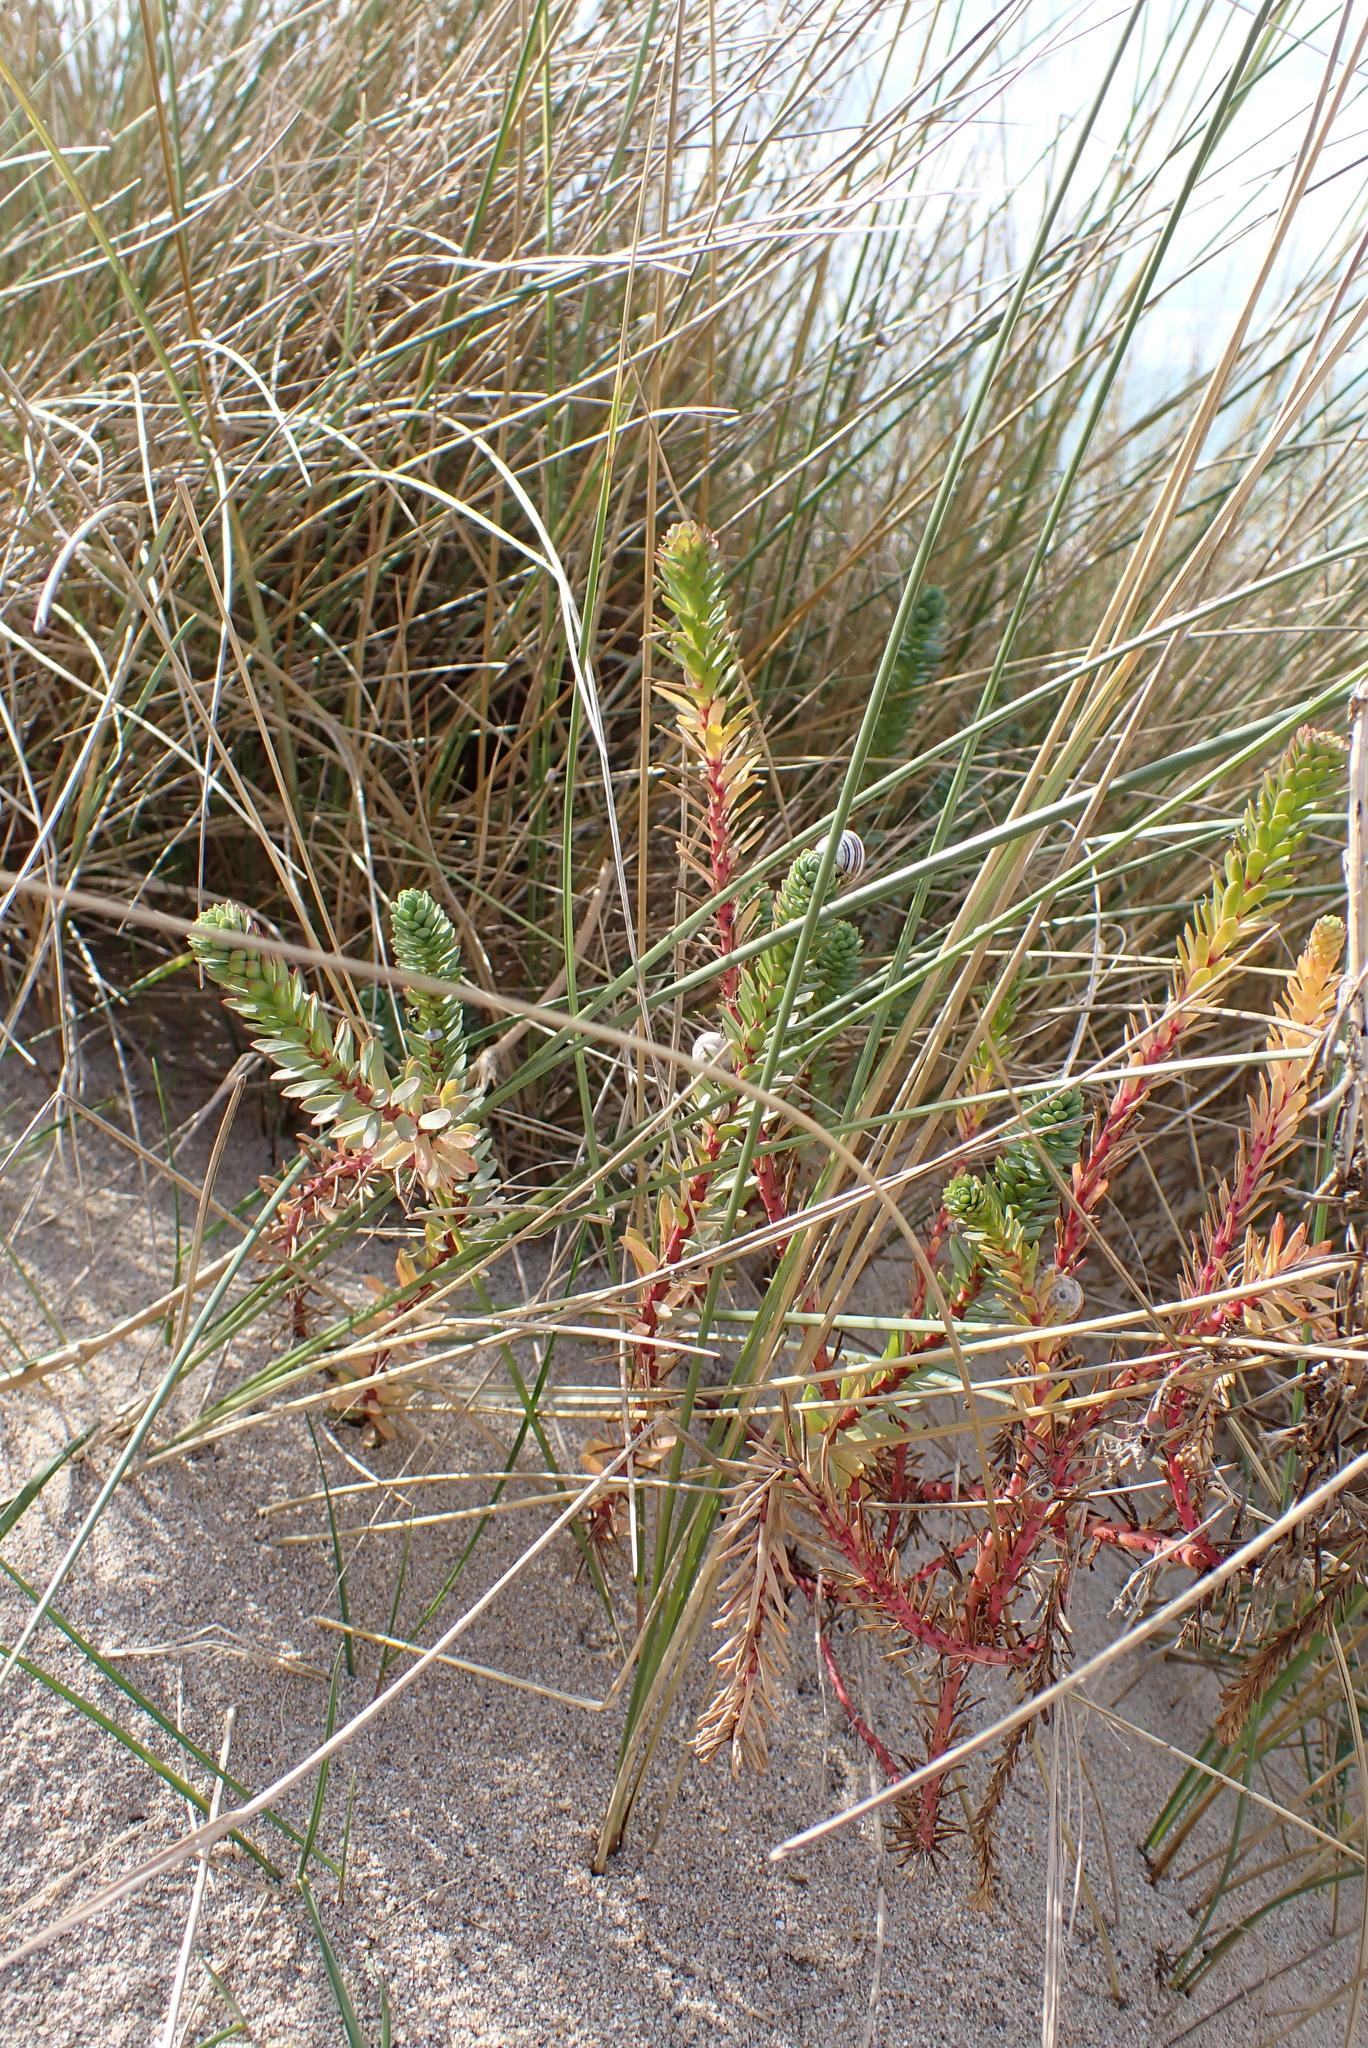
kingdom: Plantae
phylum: Tracheophyta
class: Magnoliopsida
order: Malpighiales
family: Euphorbiaceae
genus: Euphorbia
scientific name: Euphorbia paralias
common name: Sea spurge
